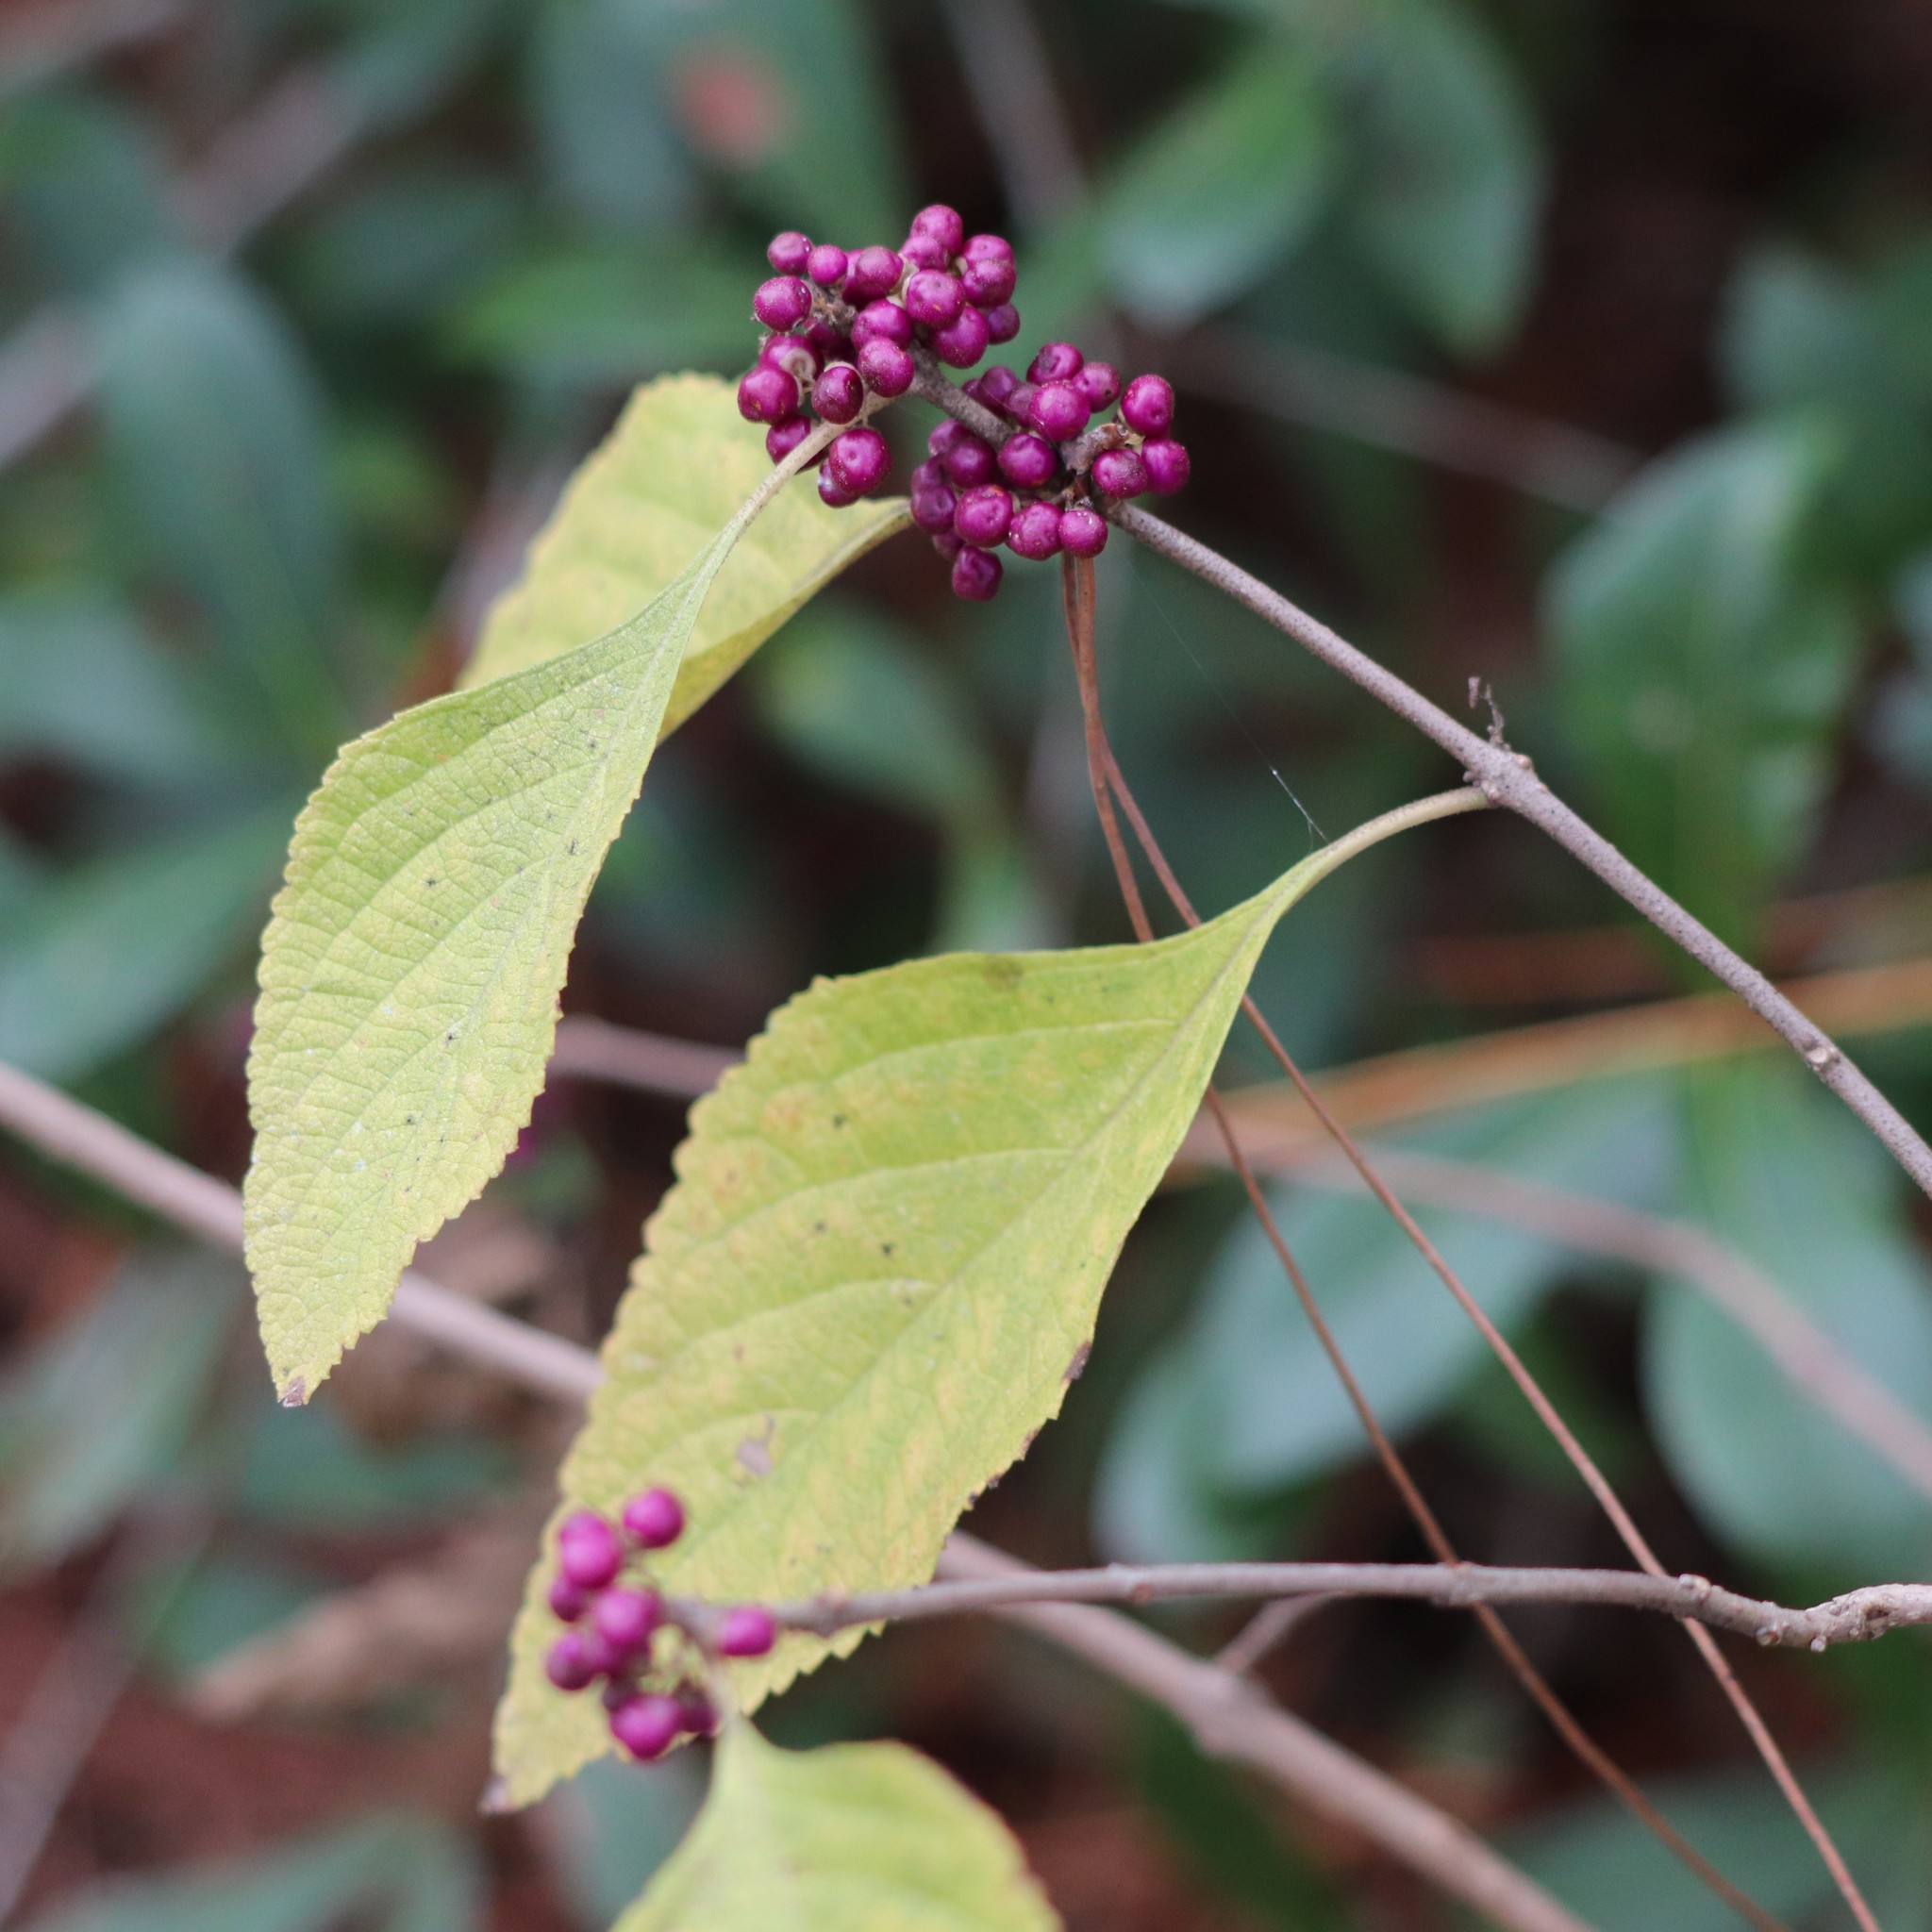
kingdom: Plantae
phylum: Tracheophyta
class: Magnoliopsida
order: Lamiales
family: Lamiaceae
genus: Callicarpa
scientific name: Callicarpa americana
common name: American beautyberry
